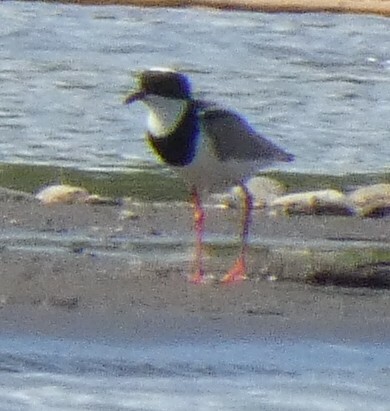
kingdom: Animalia
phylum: Chordata
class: Aves
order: Charadriiformes
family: Charadriidae
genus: Hoploxypterus
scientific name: Hoploxypterus cayanus
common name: Pied plover
